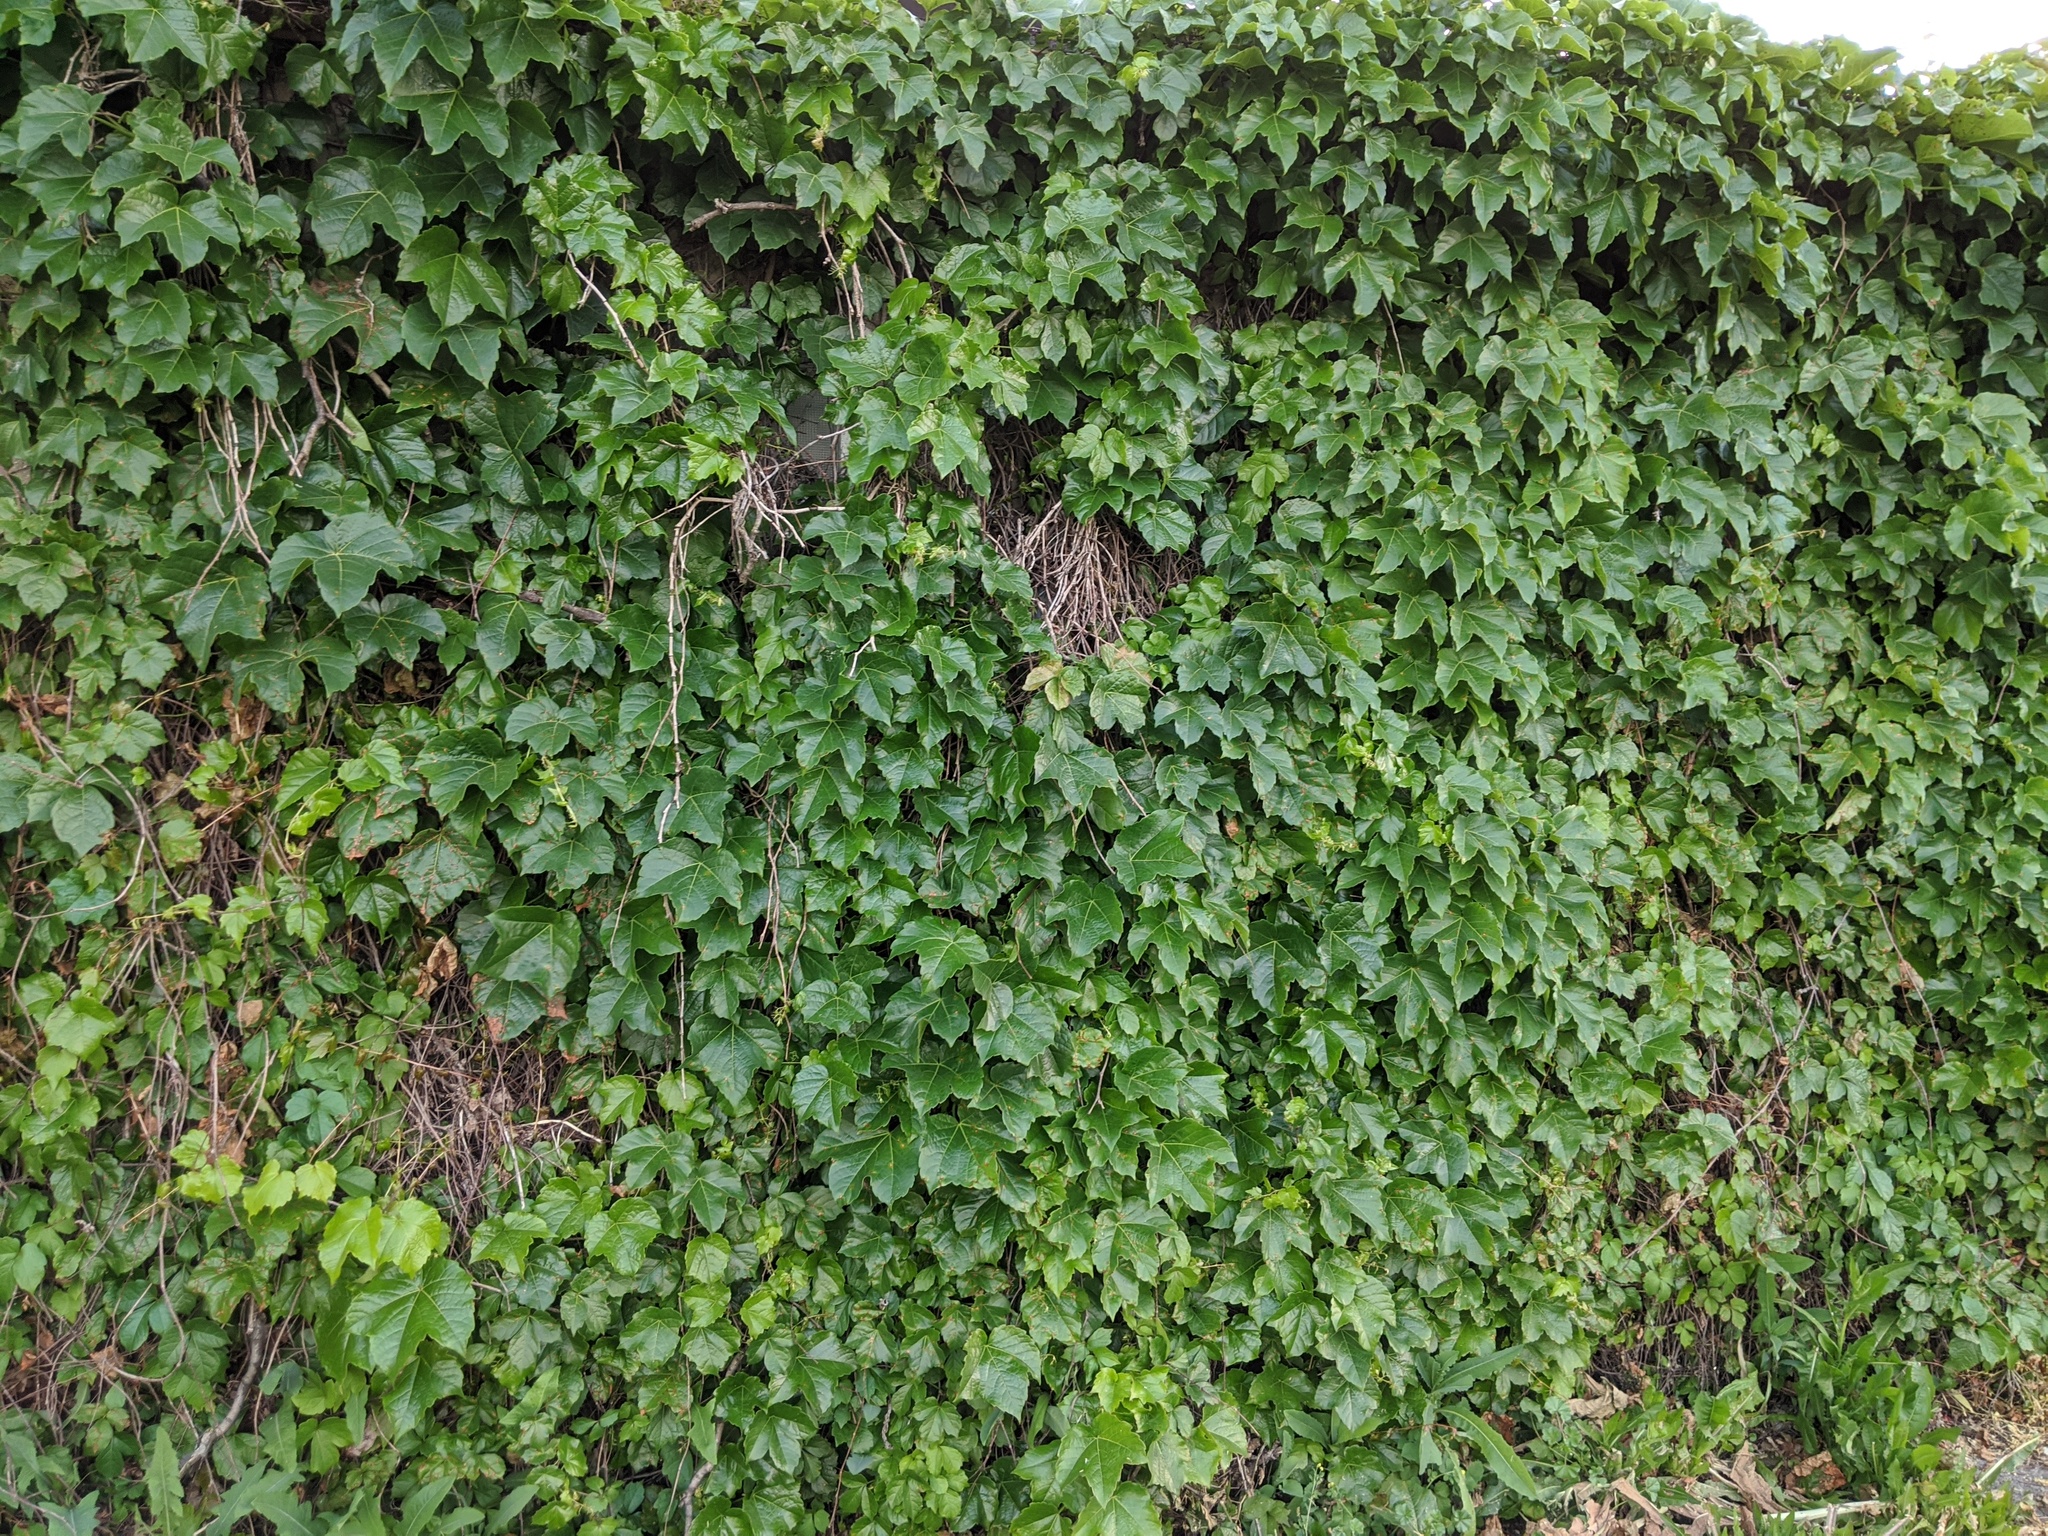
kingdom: Plantae
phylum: Tracheophyta
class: Magnoliopsida
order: Vitales
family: Vitaceae
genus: Parthenocissus
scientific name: Parthenocissus tricuspidata
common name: Boston ivy
